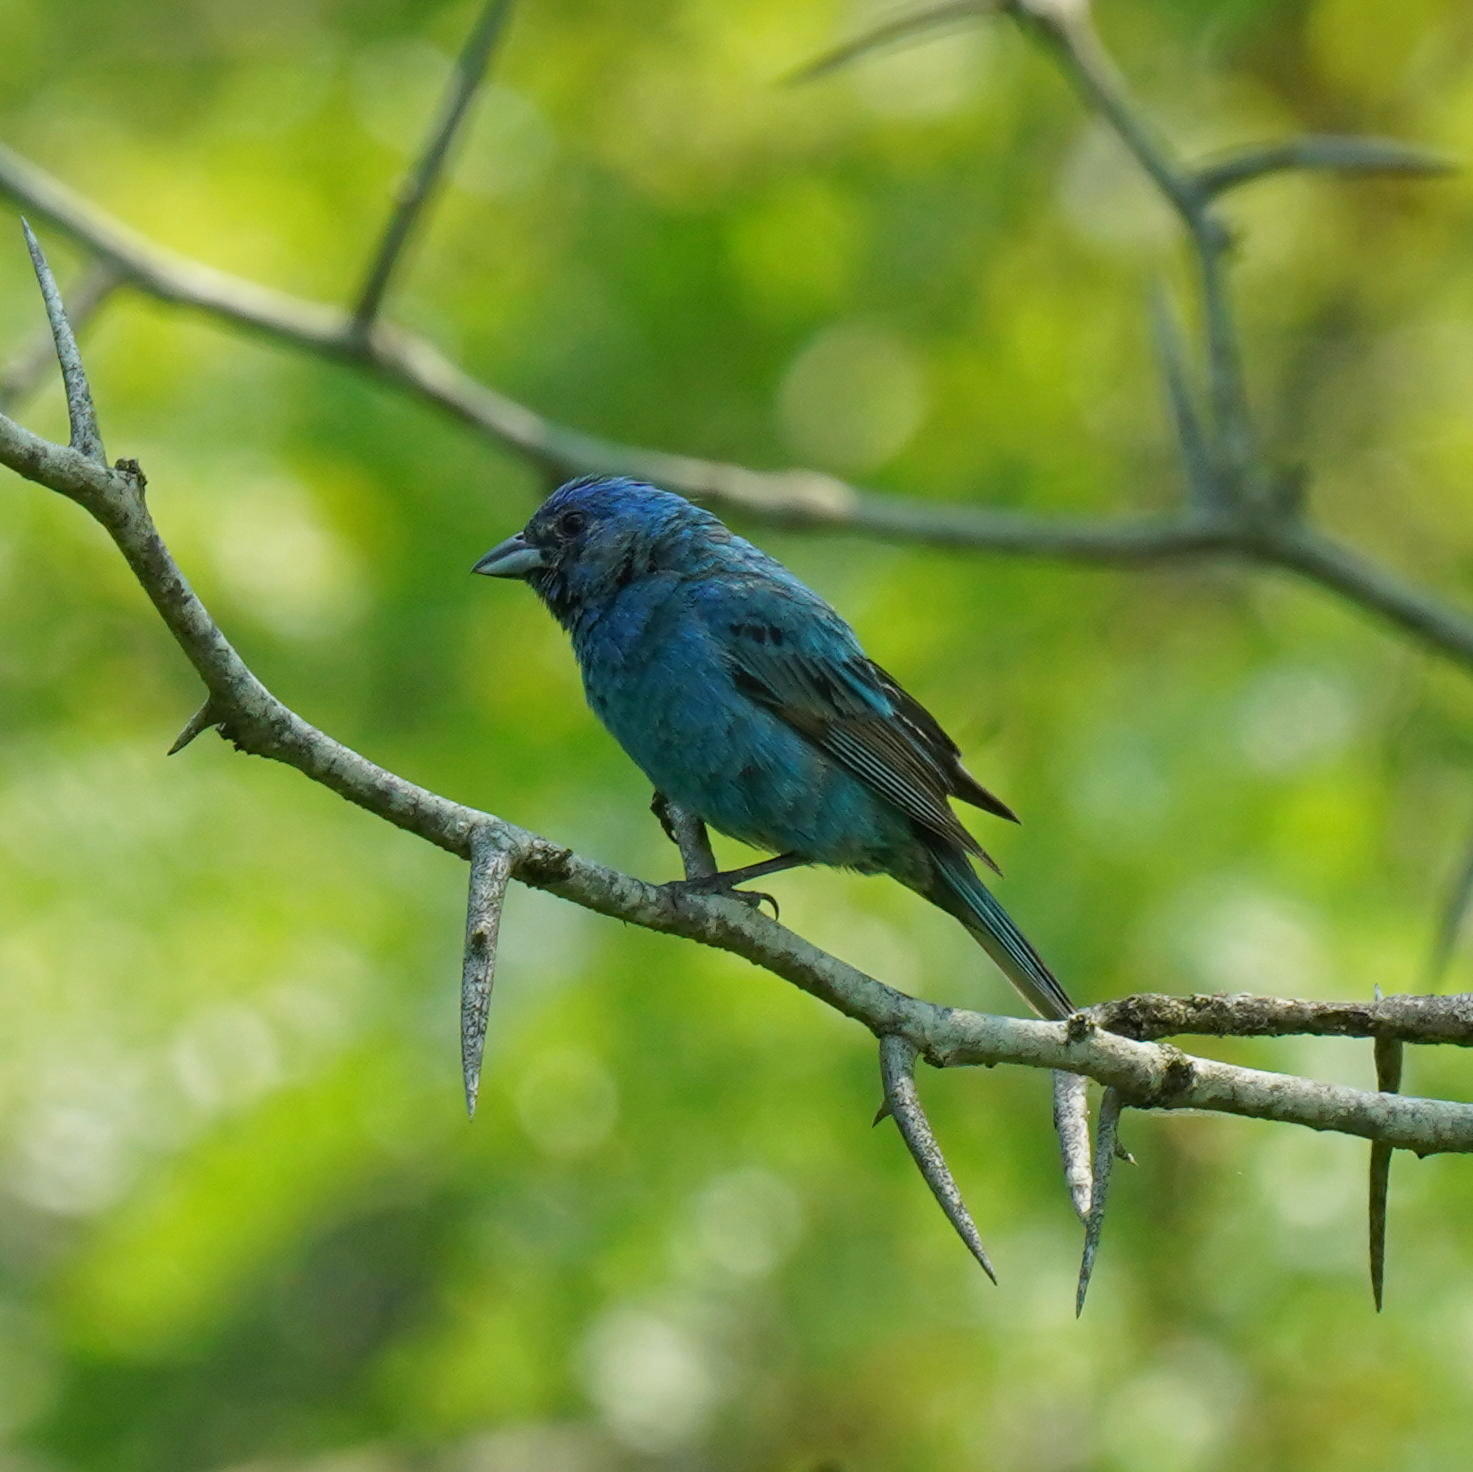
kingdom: Animalia
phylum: Chordata
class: Aves
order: Passeriformes
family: Cardinalidae
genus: Passerina
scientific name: Passerina cyanea
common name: Indigo bunting
